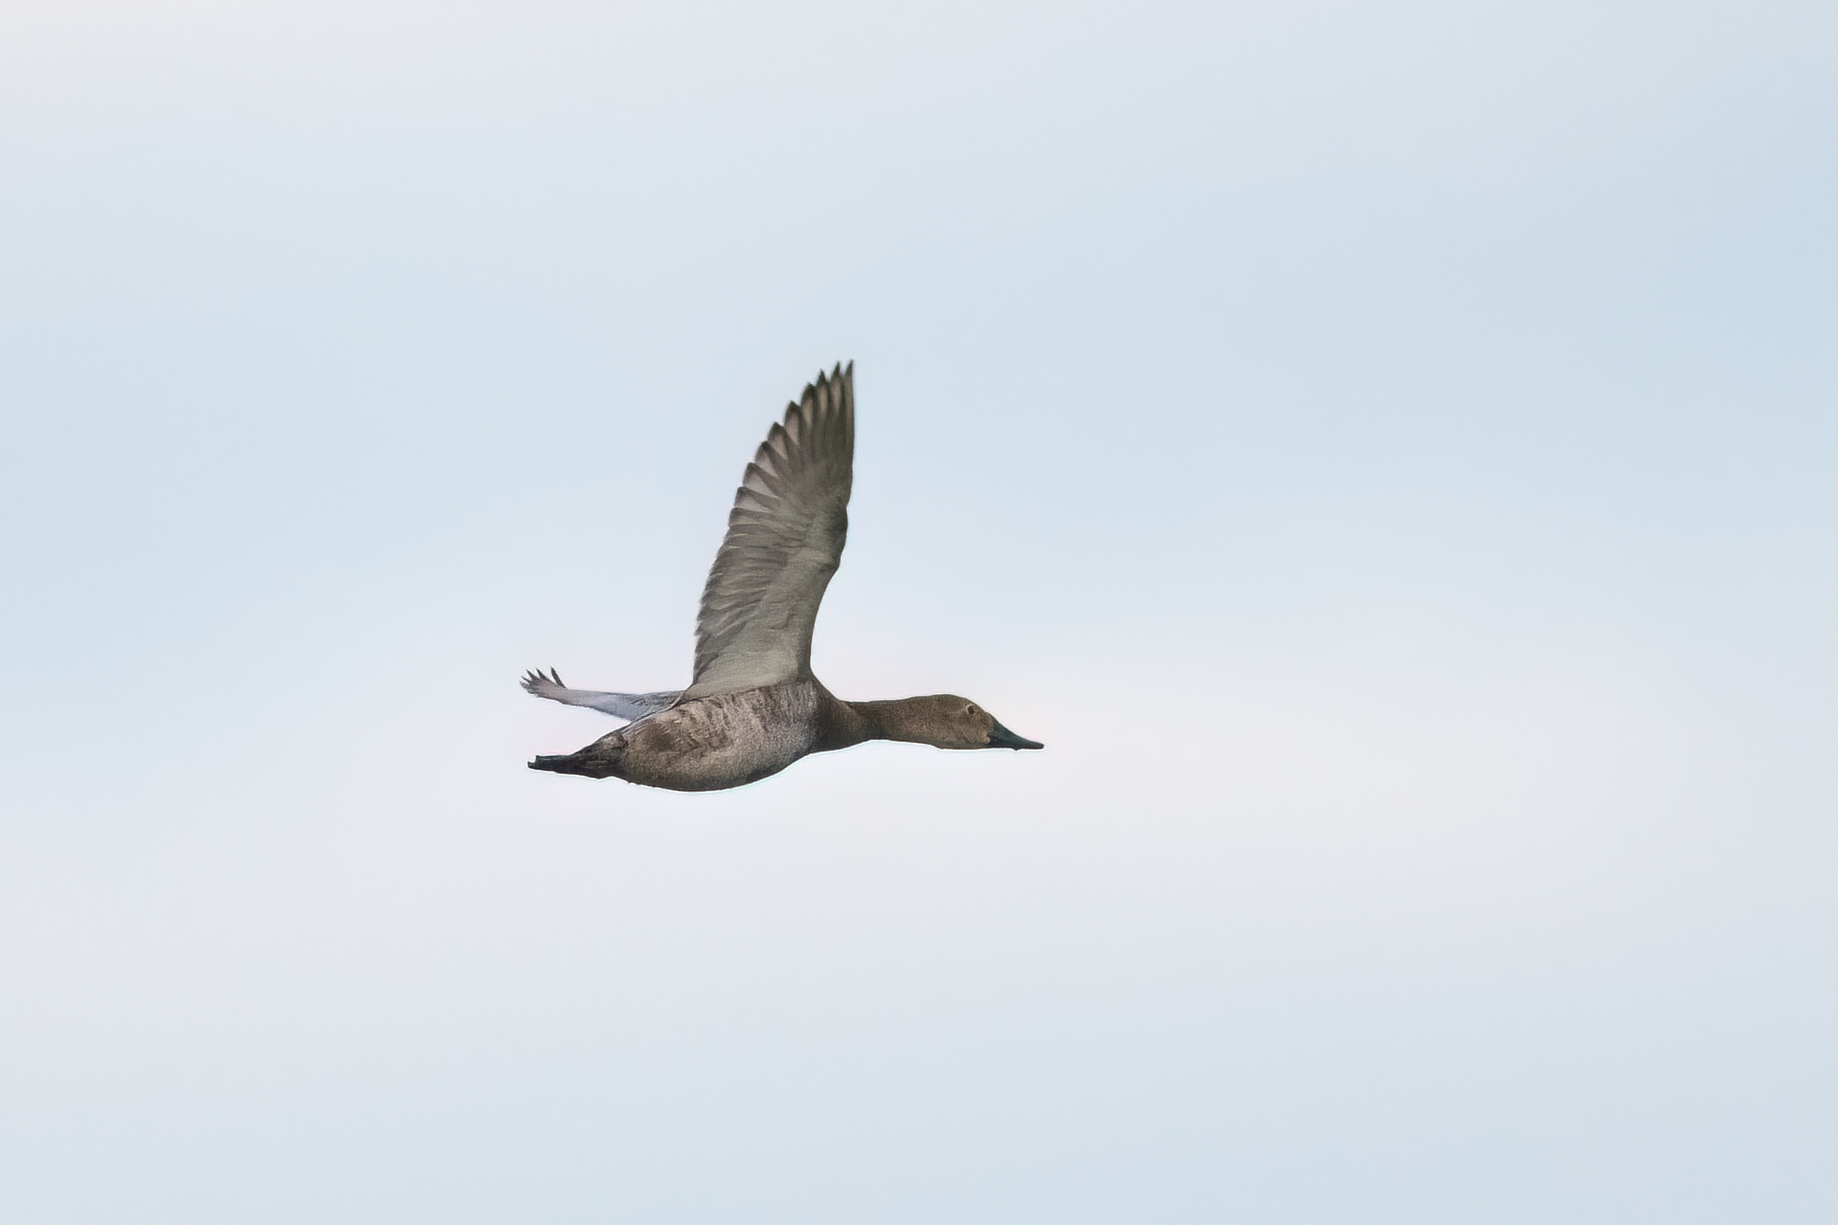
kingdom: Animalia
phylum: Chordata
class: Aves
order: Anseriformes
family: Anatidae
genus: Aythya
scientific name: Aythya valisineria
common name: Canvasback
